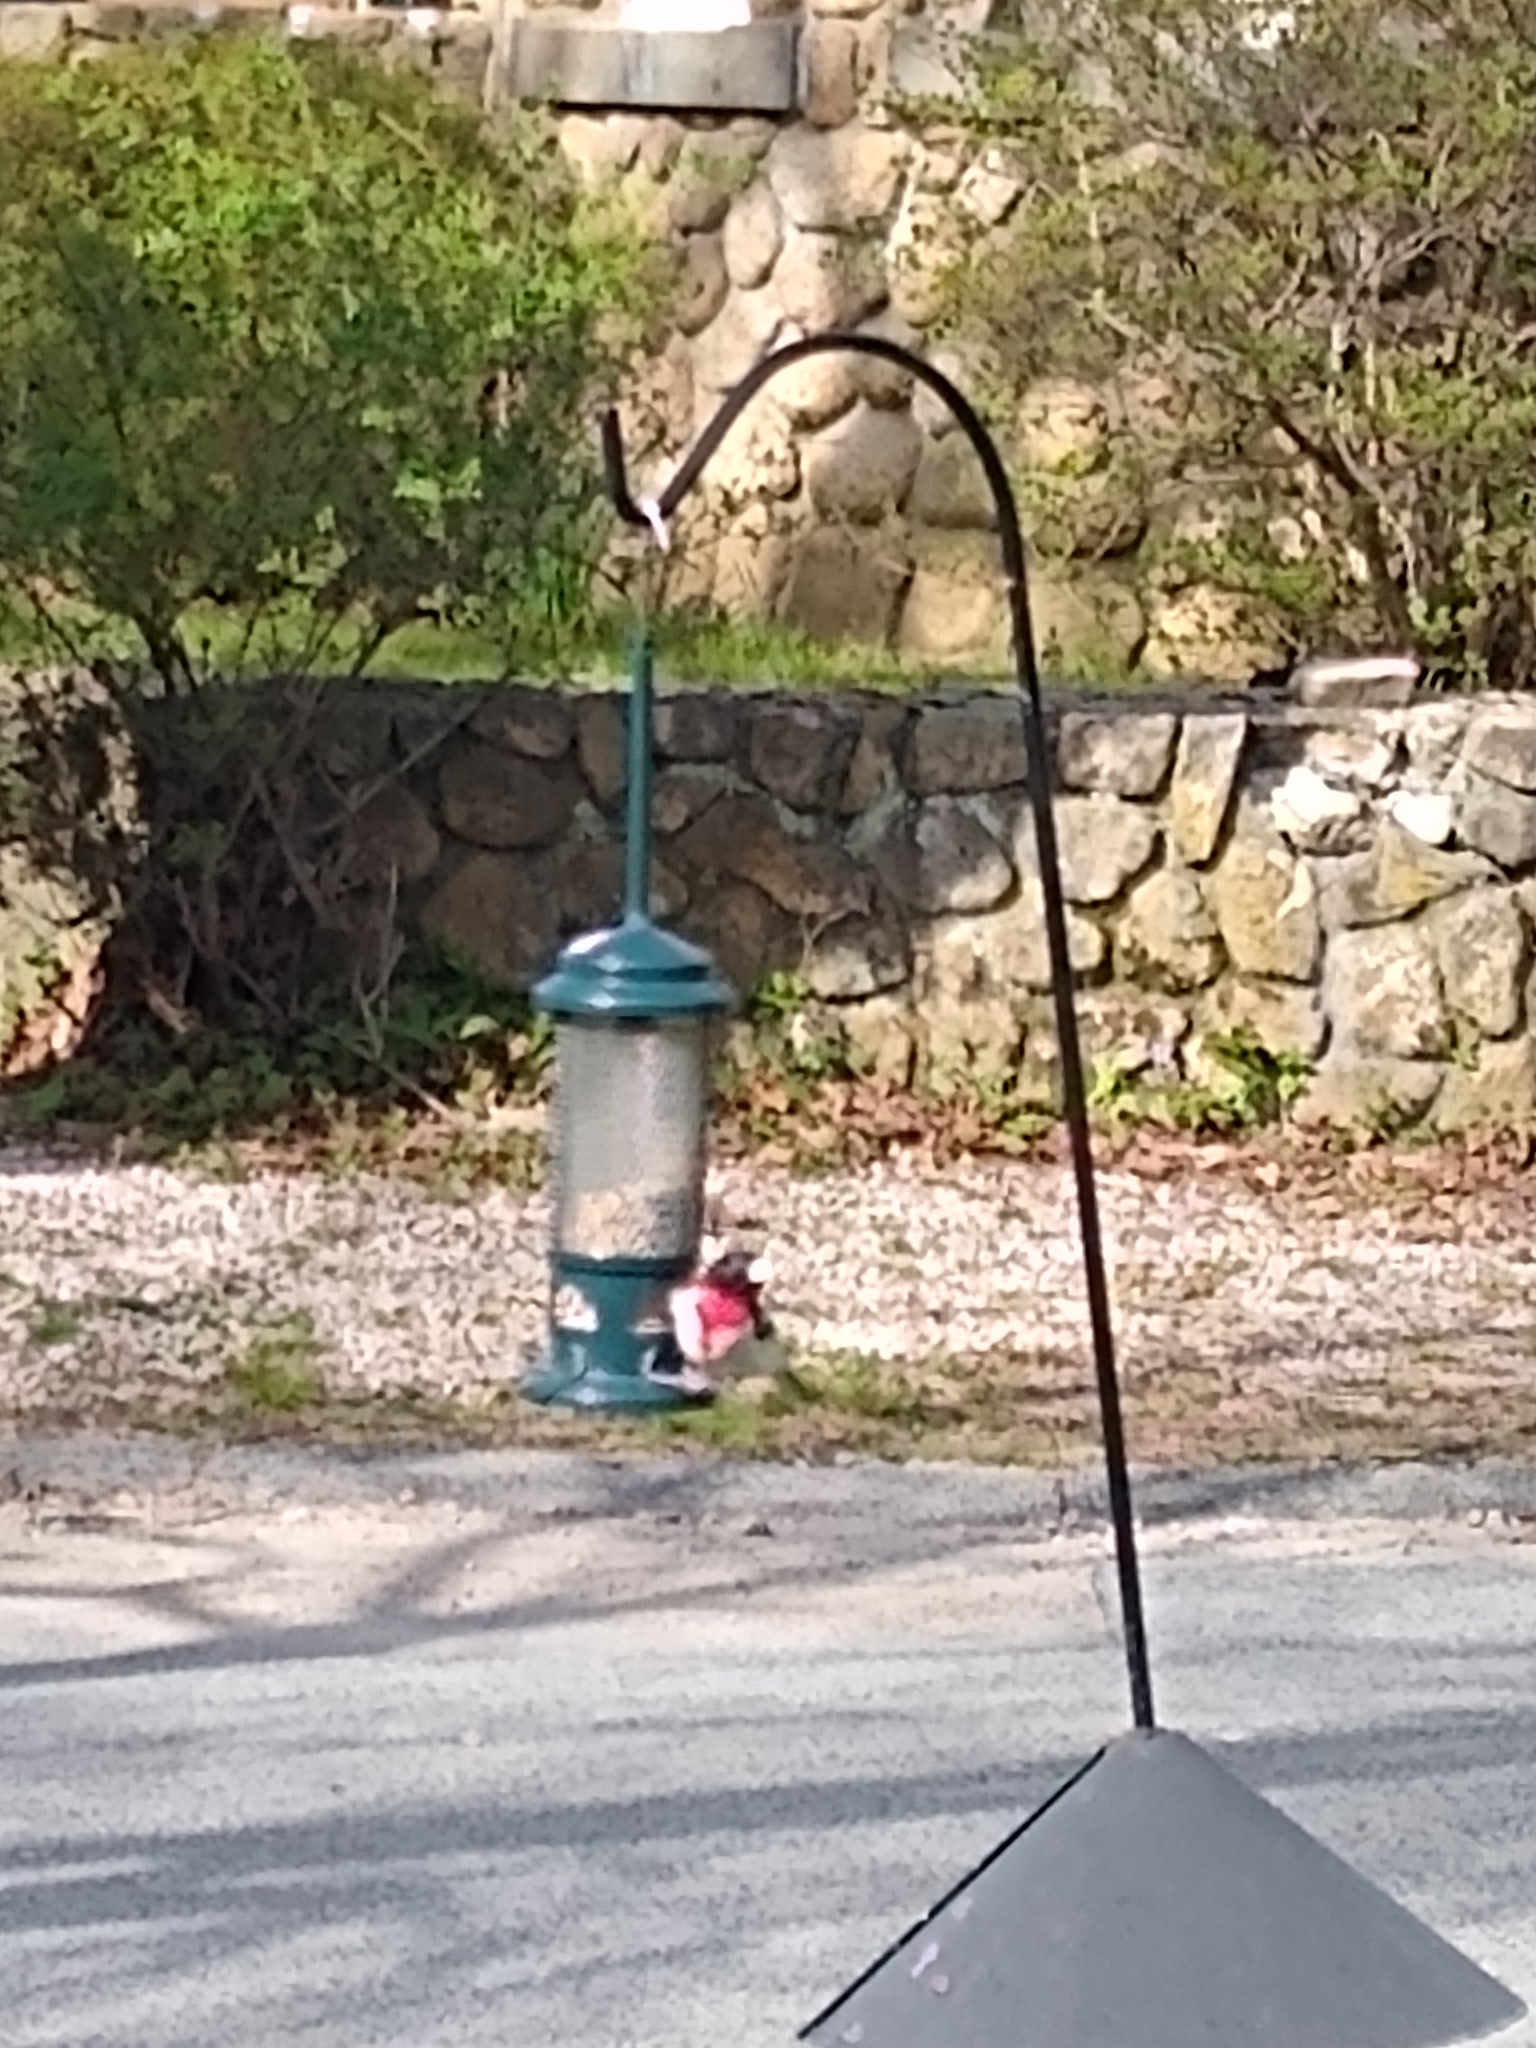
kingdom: Animalia
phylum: Chordata
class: Aves
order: Passeriformes
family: Cardinalidae
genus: Pheucticus
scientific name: Pheucticus ludovicianus
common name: Rose-breasted grosbeak
